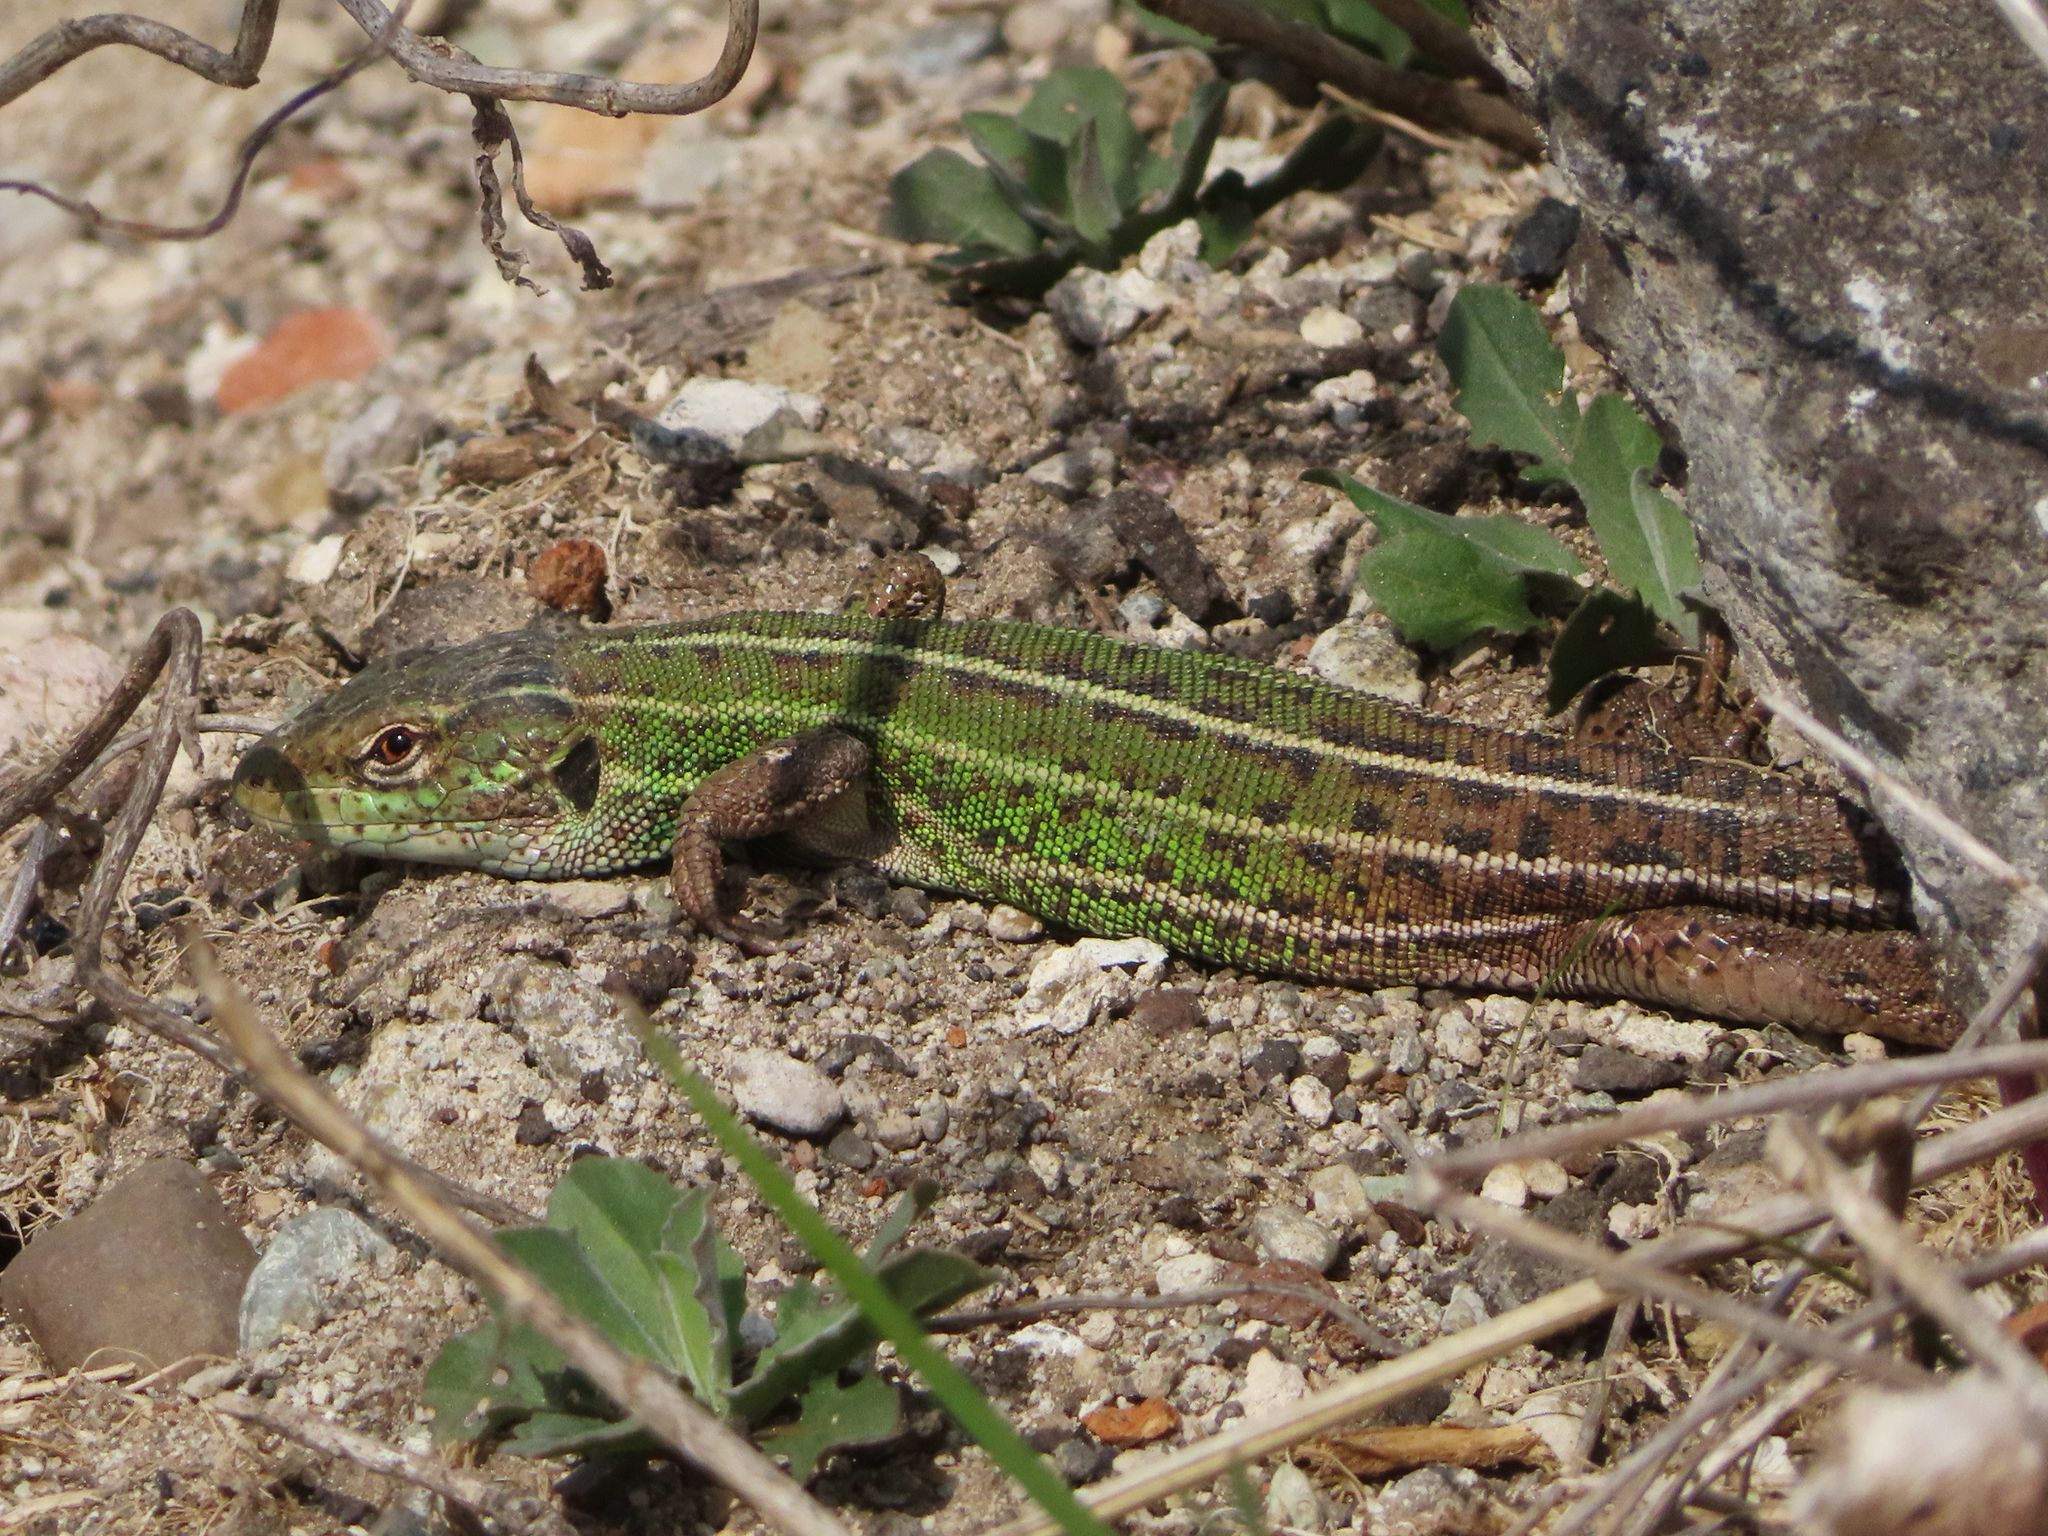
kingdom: Animalia
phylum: Chordata
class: Squamata
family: Lacertidae
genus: Lacerta
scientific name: Lacerta strigata
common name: Caspian green lizard
